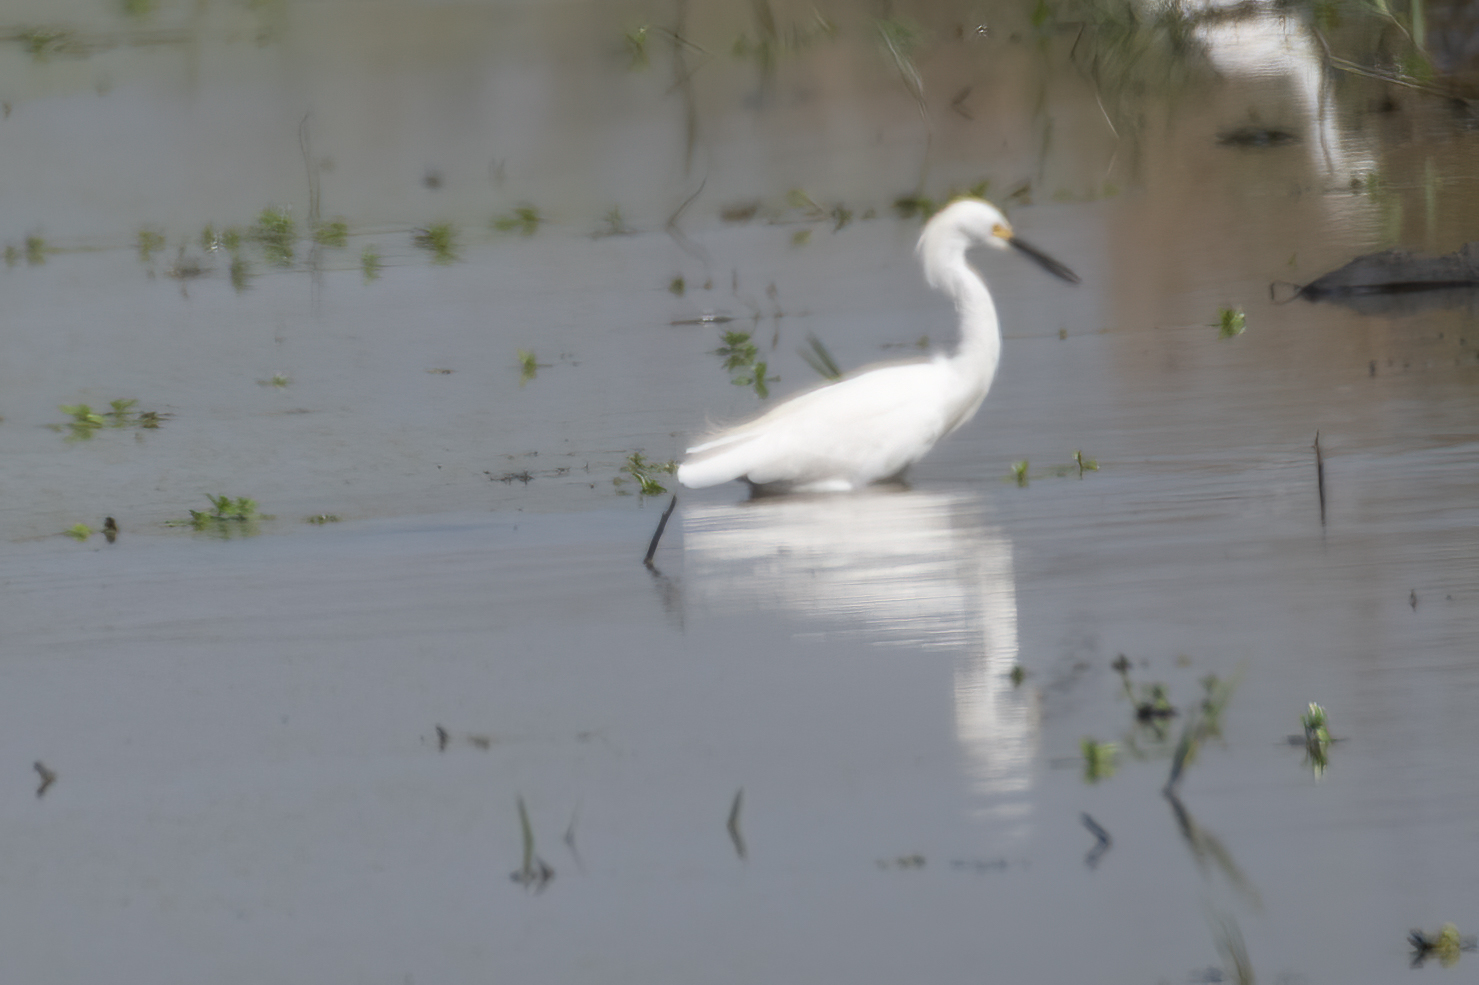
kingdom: Animalia
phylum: Chordata
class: Aves
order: Pelecaniformes
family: Ardeidae
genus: Egretta
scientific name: Egretta thula
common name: Snowy egret
